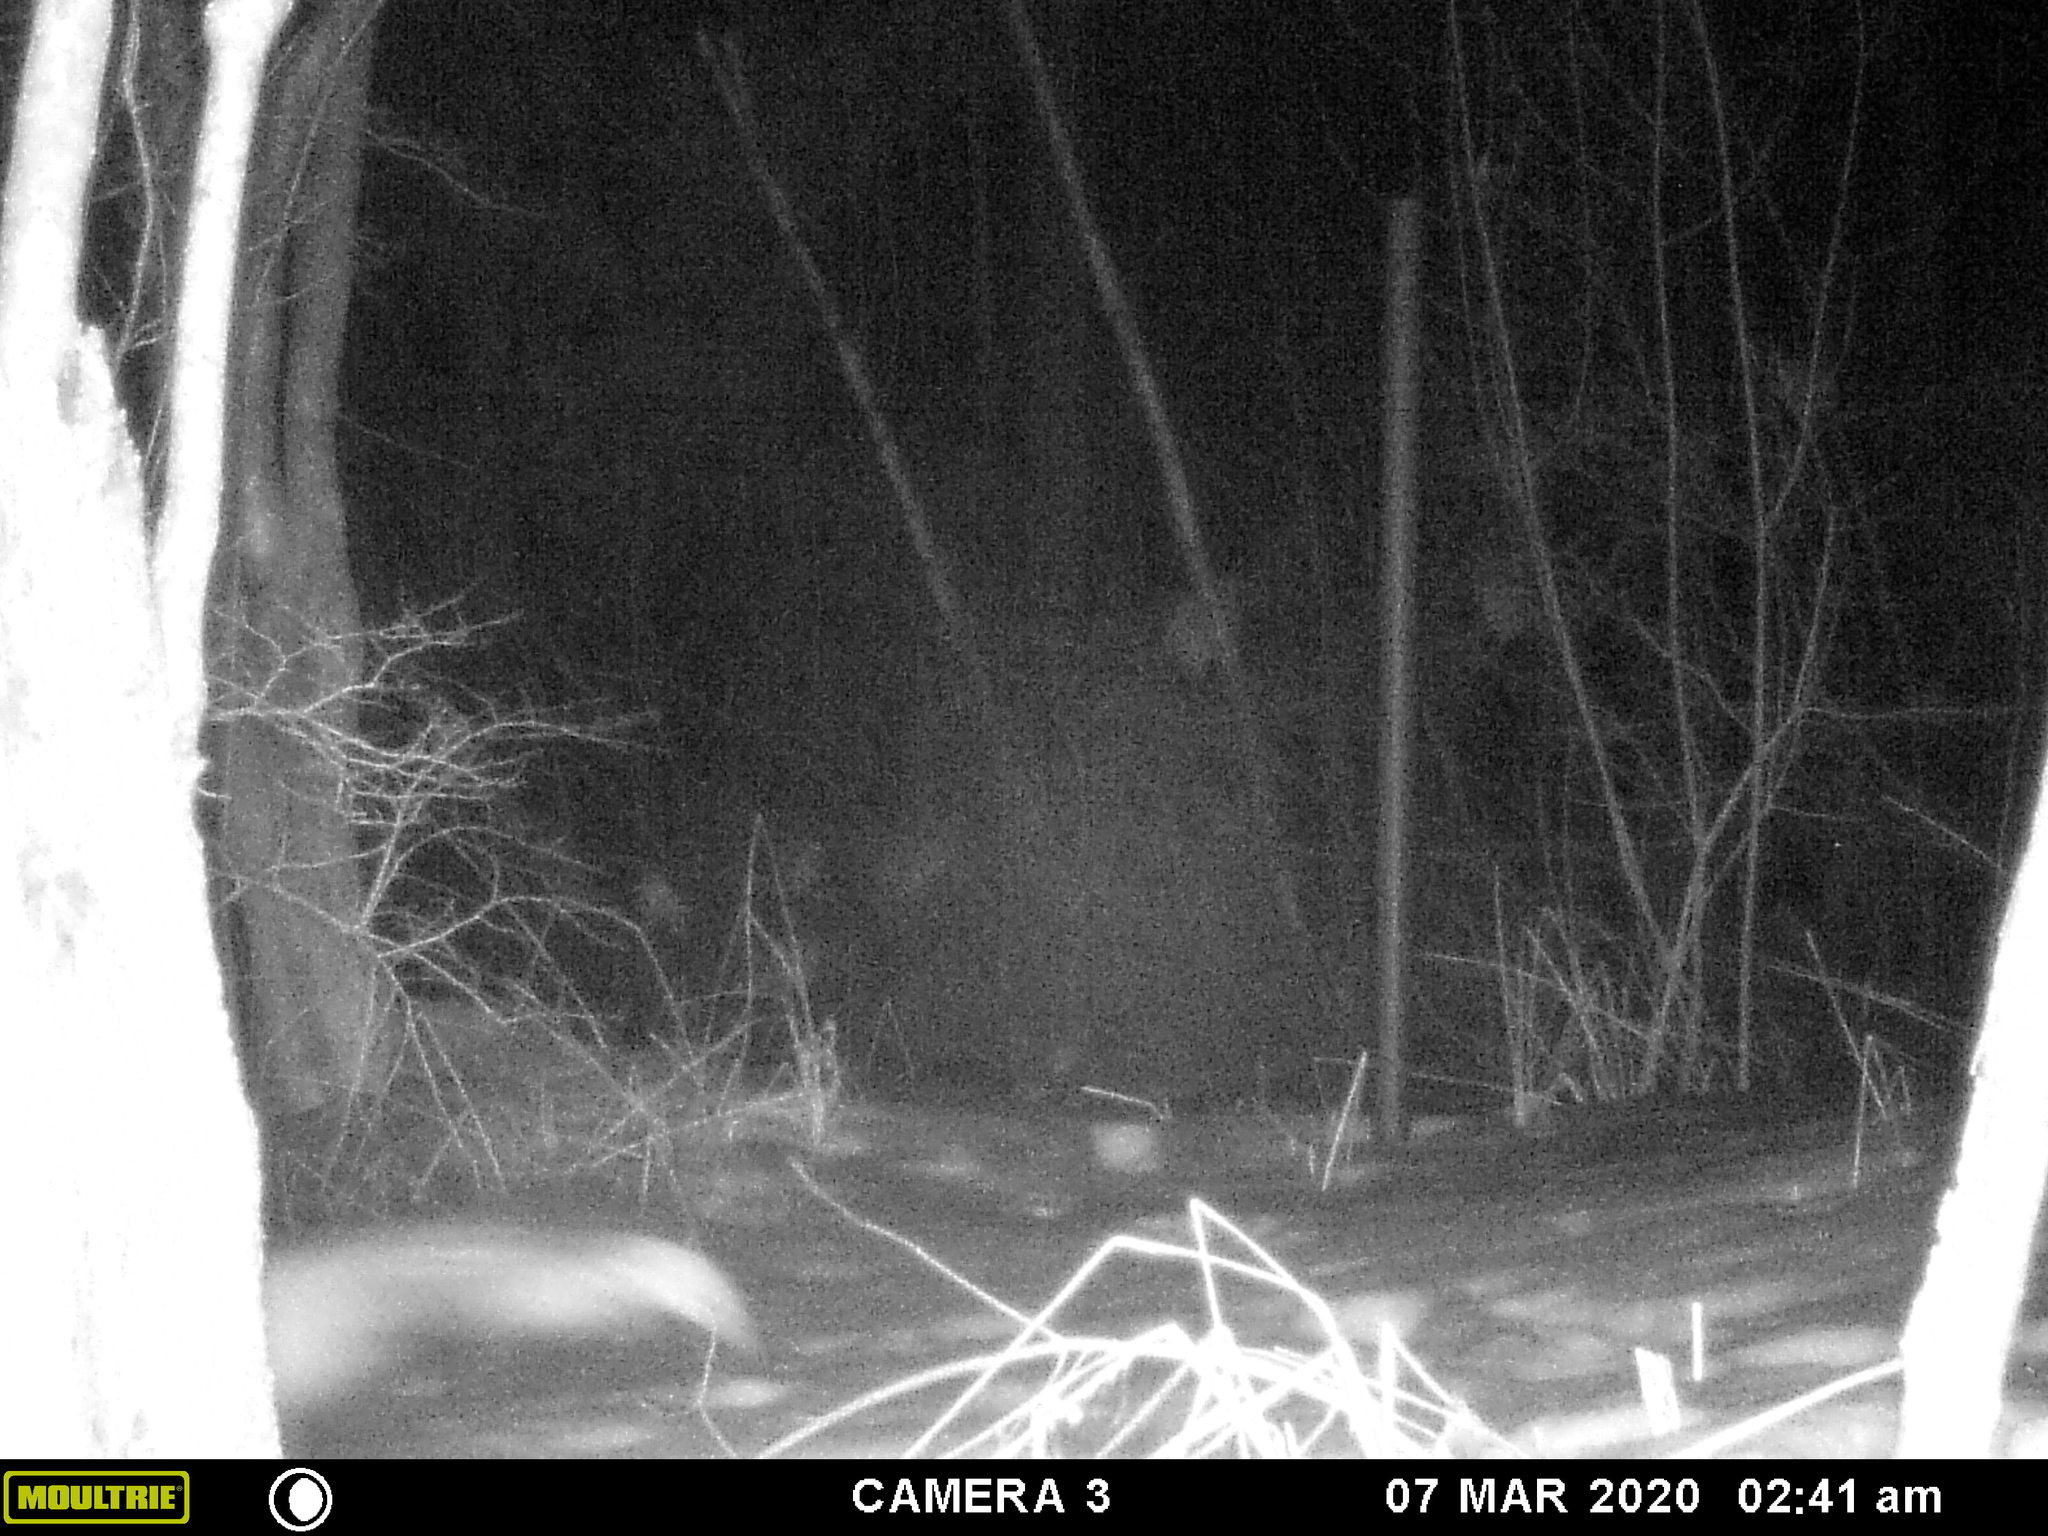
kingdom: Animalia
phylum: Chordata
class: Mammalia
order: Carnivora
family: Mephitidae
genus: Mephitis
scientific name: Mephitis mephitis
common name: Striped skunk
